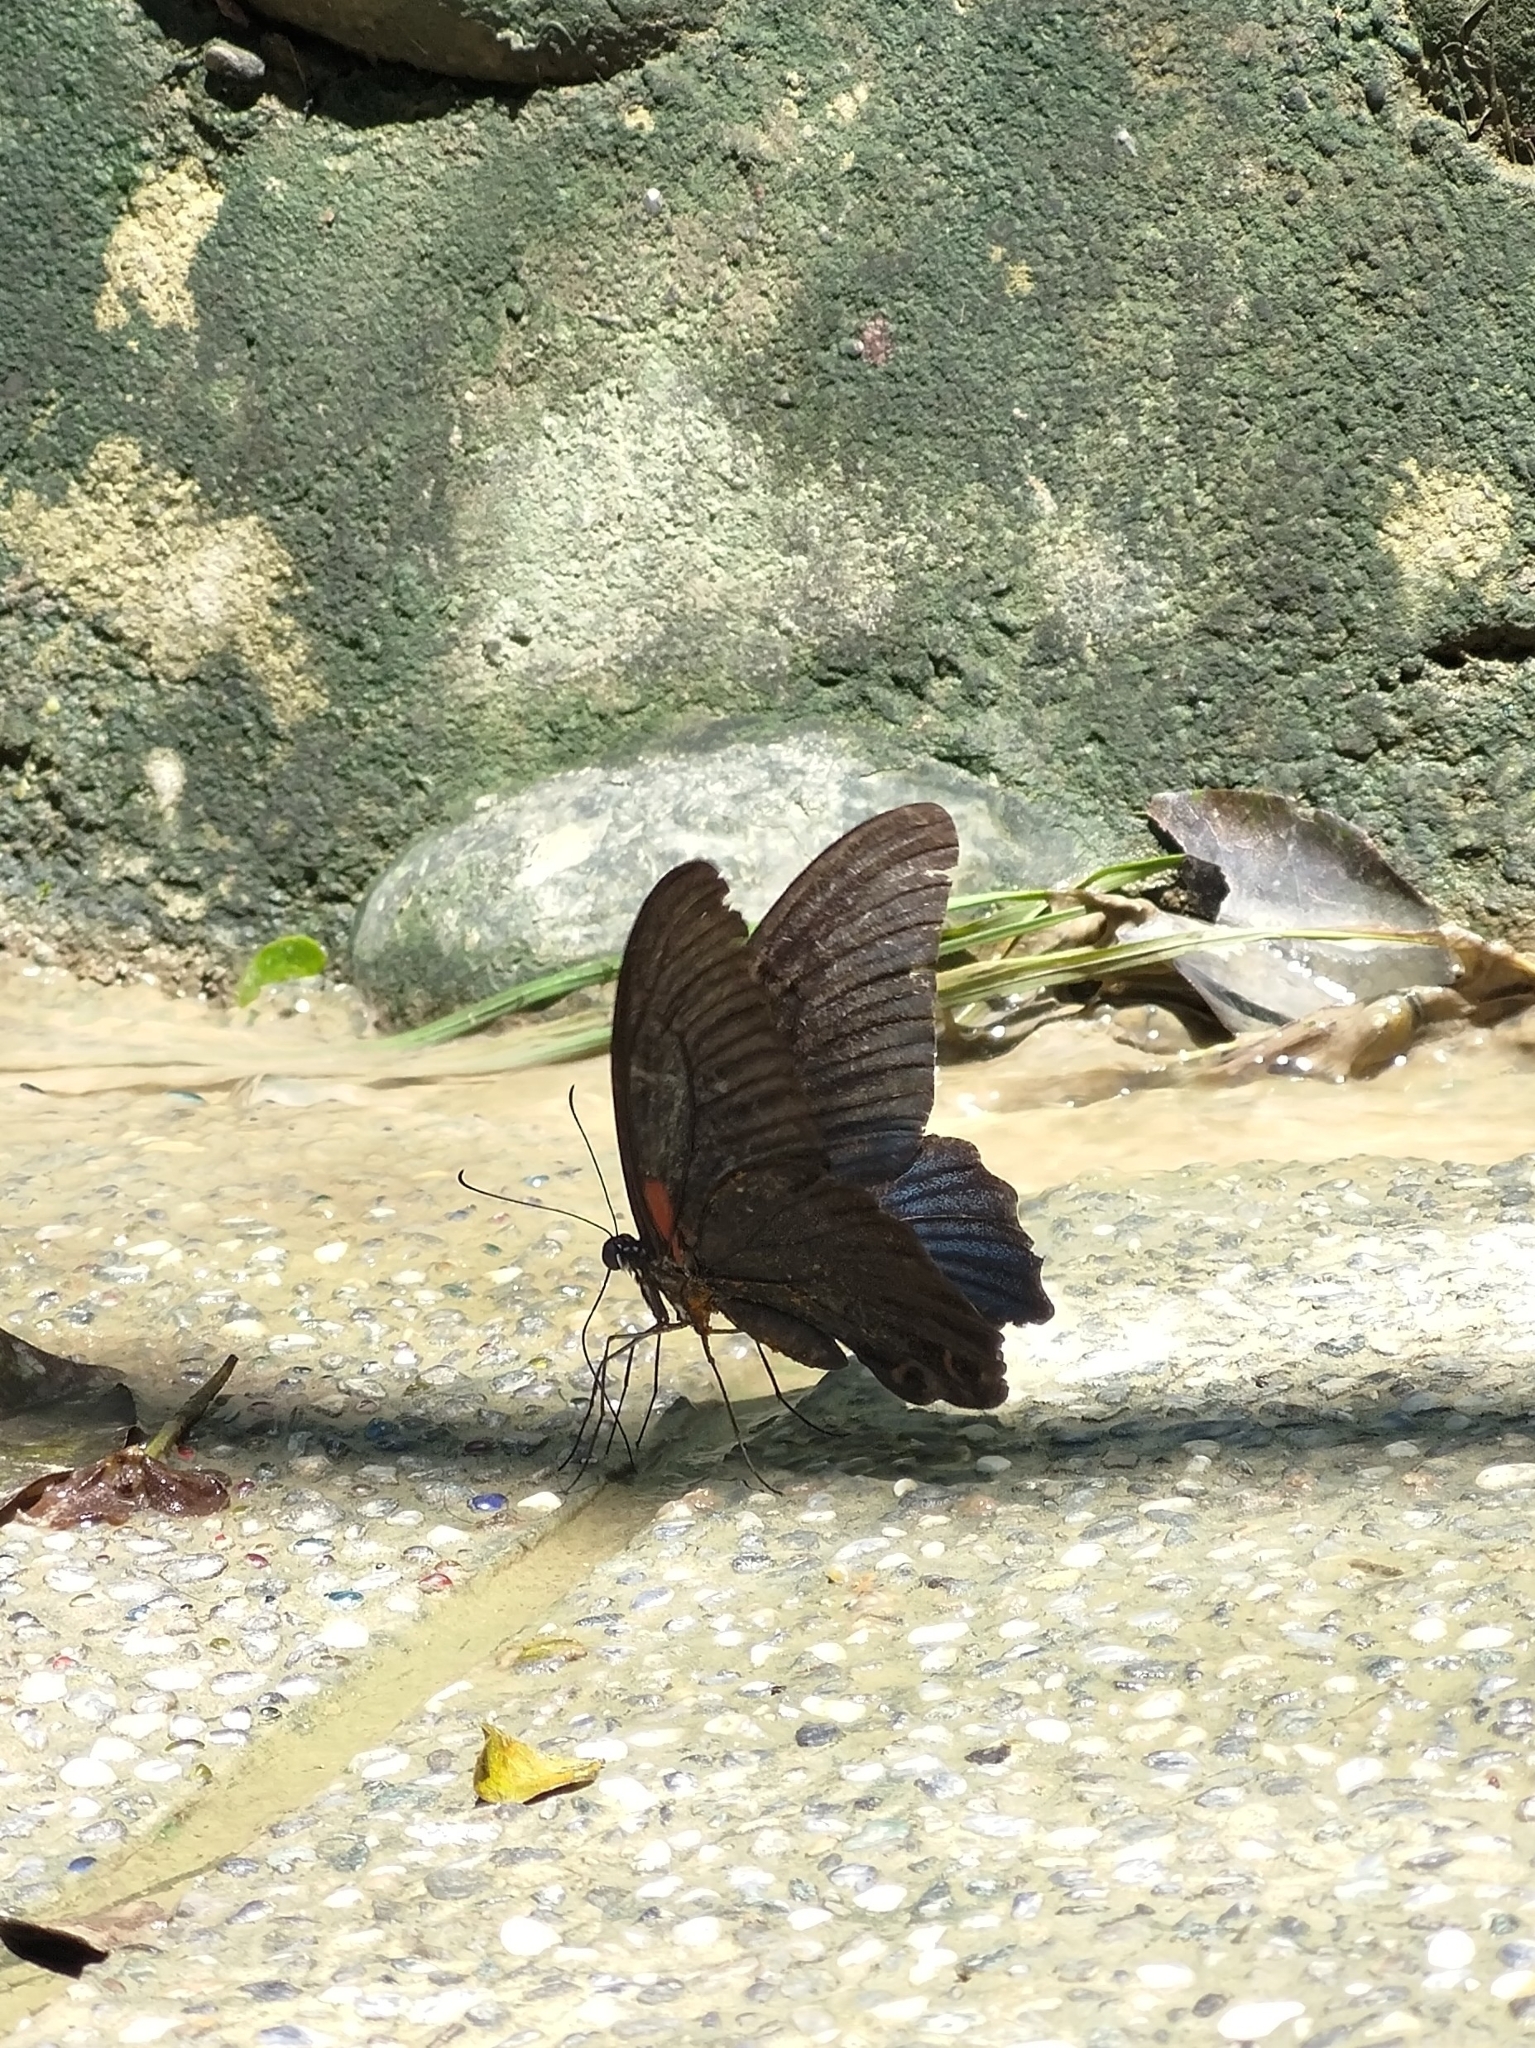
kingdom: Animalia
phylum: Arthropoda
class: Insecta
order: Lepidoptera
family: Papilionidae
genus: Papilio
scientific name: Papilio memnon
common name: Great mormon
